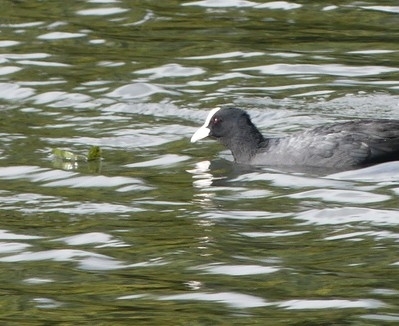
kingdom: Animalia
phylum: Chordata
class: Aves
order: Gruiformes
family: Rallidae
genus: Fulica
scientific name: Fulica atra
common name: Eurasian coot
